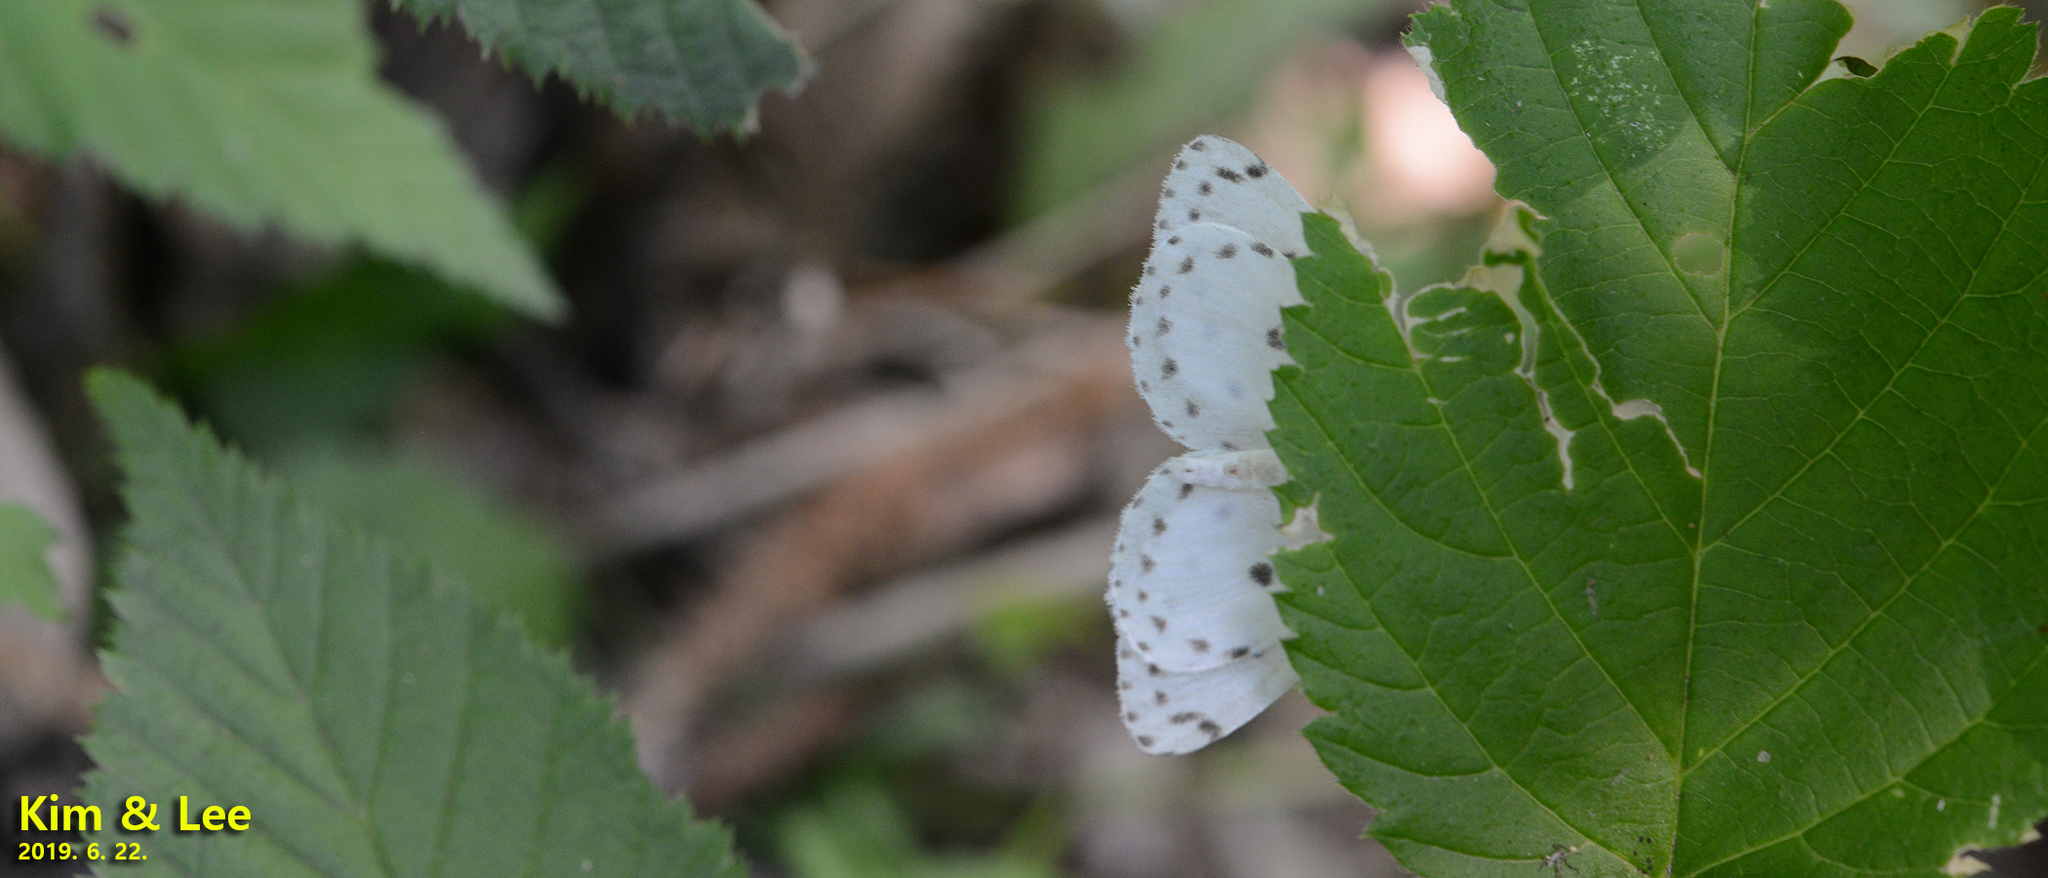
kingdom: Animalia
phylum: Arthropoda
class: Insecta
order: Lepidoptera
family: Geometridae
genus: Naxa
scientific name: Naxa seriaria
